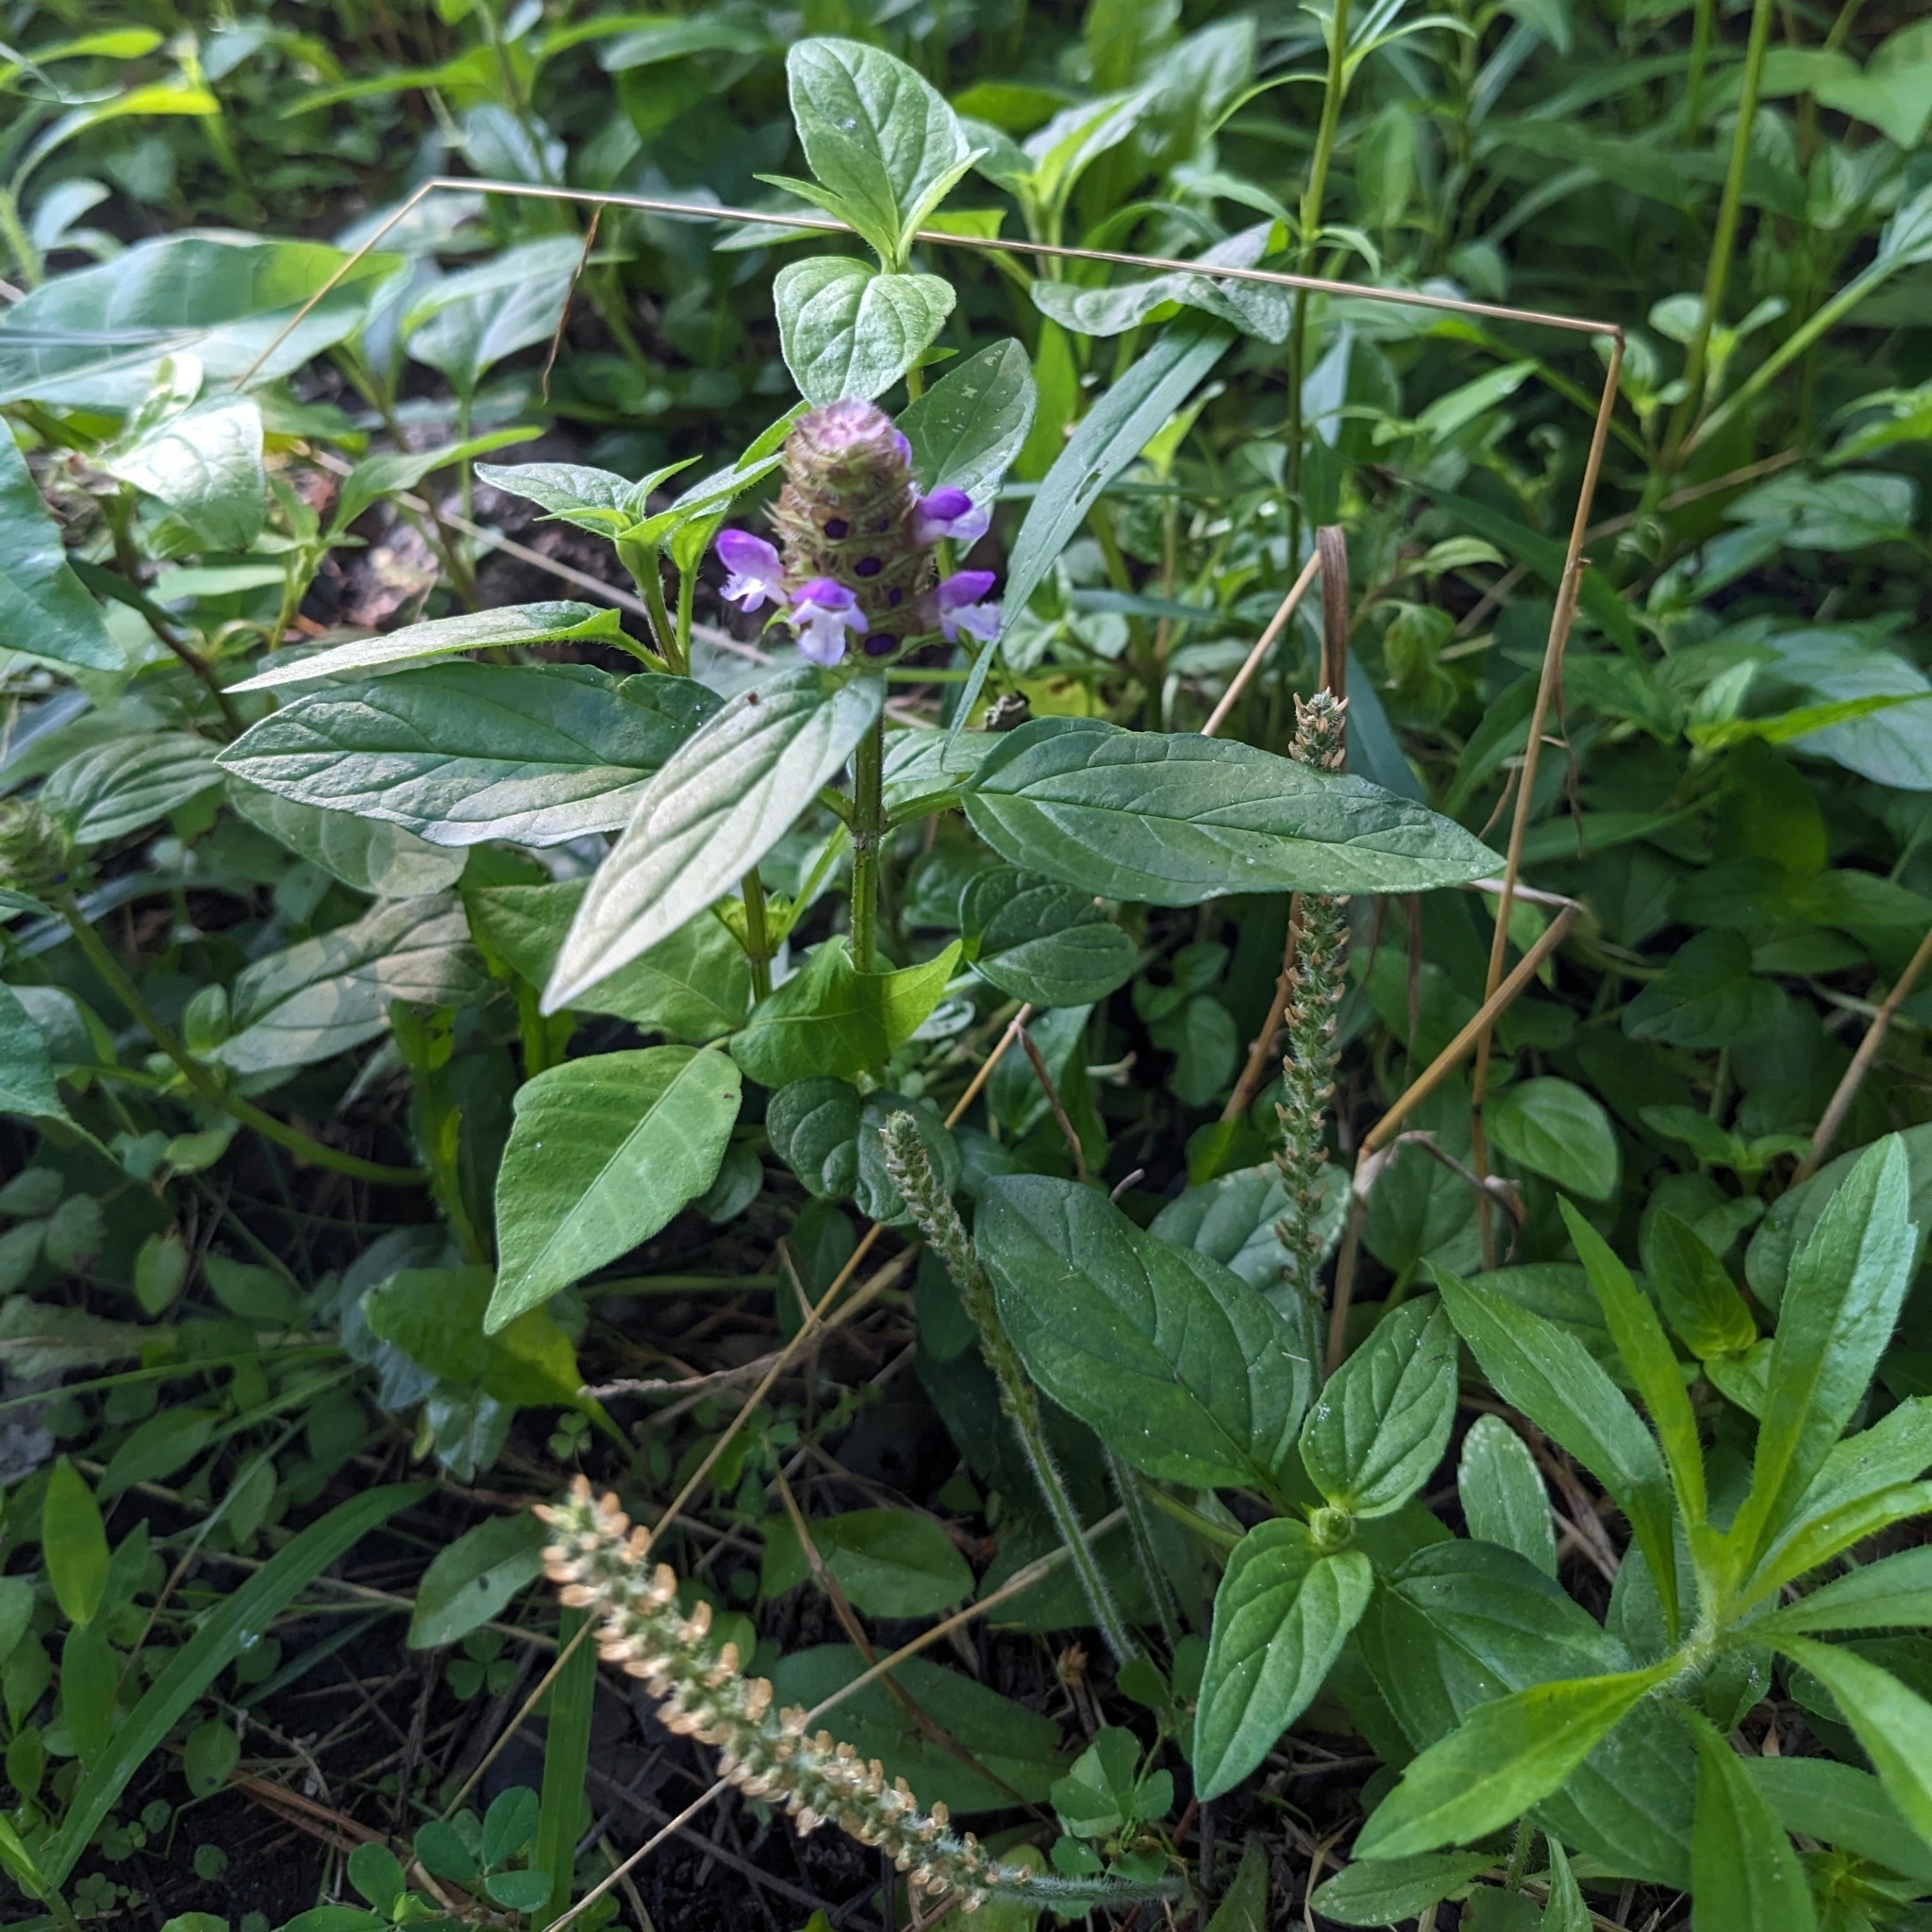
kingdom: Plantae
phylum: Tracheophyta
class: Magnoliopsida
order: Lamiales
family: Lamiaceae
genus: Prunella
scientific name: Prunella vulgaris
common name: Heal-all
